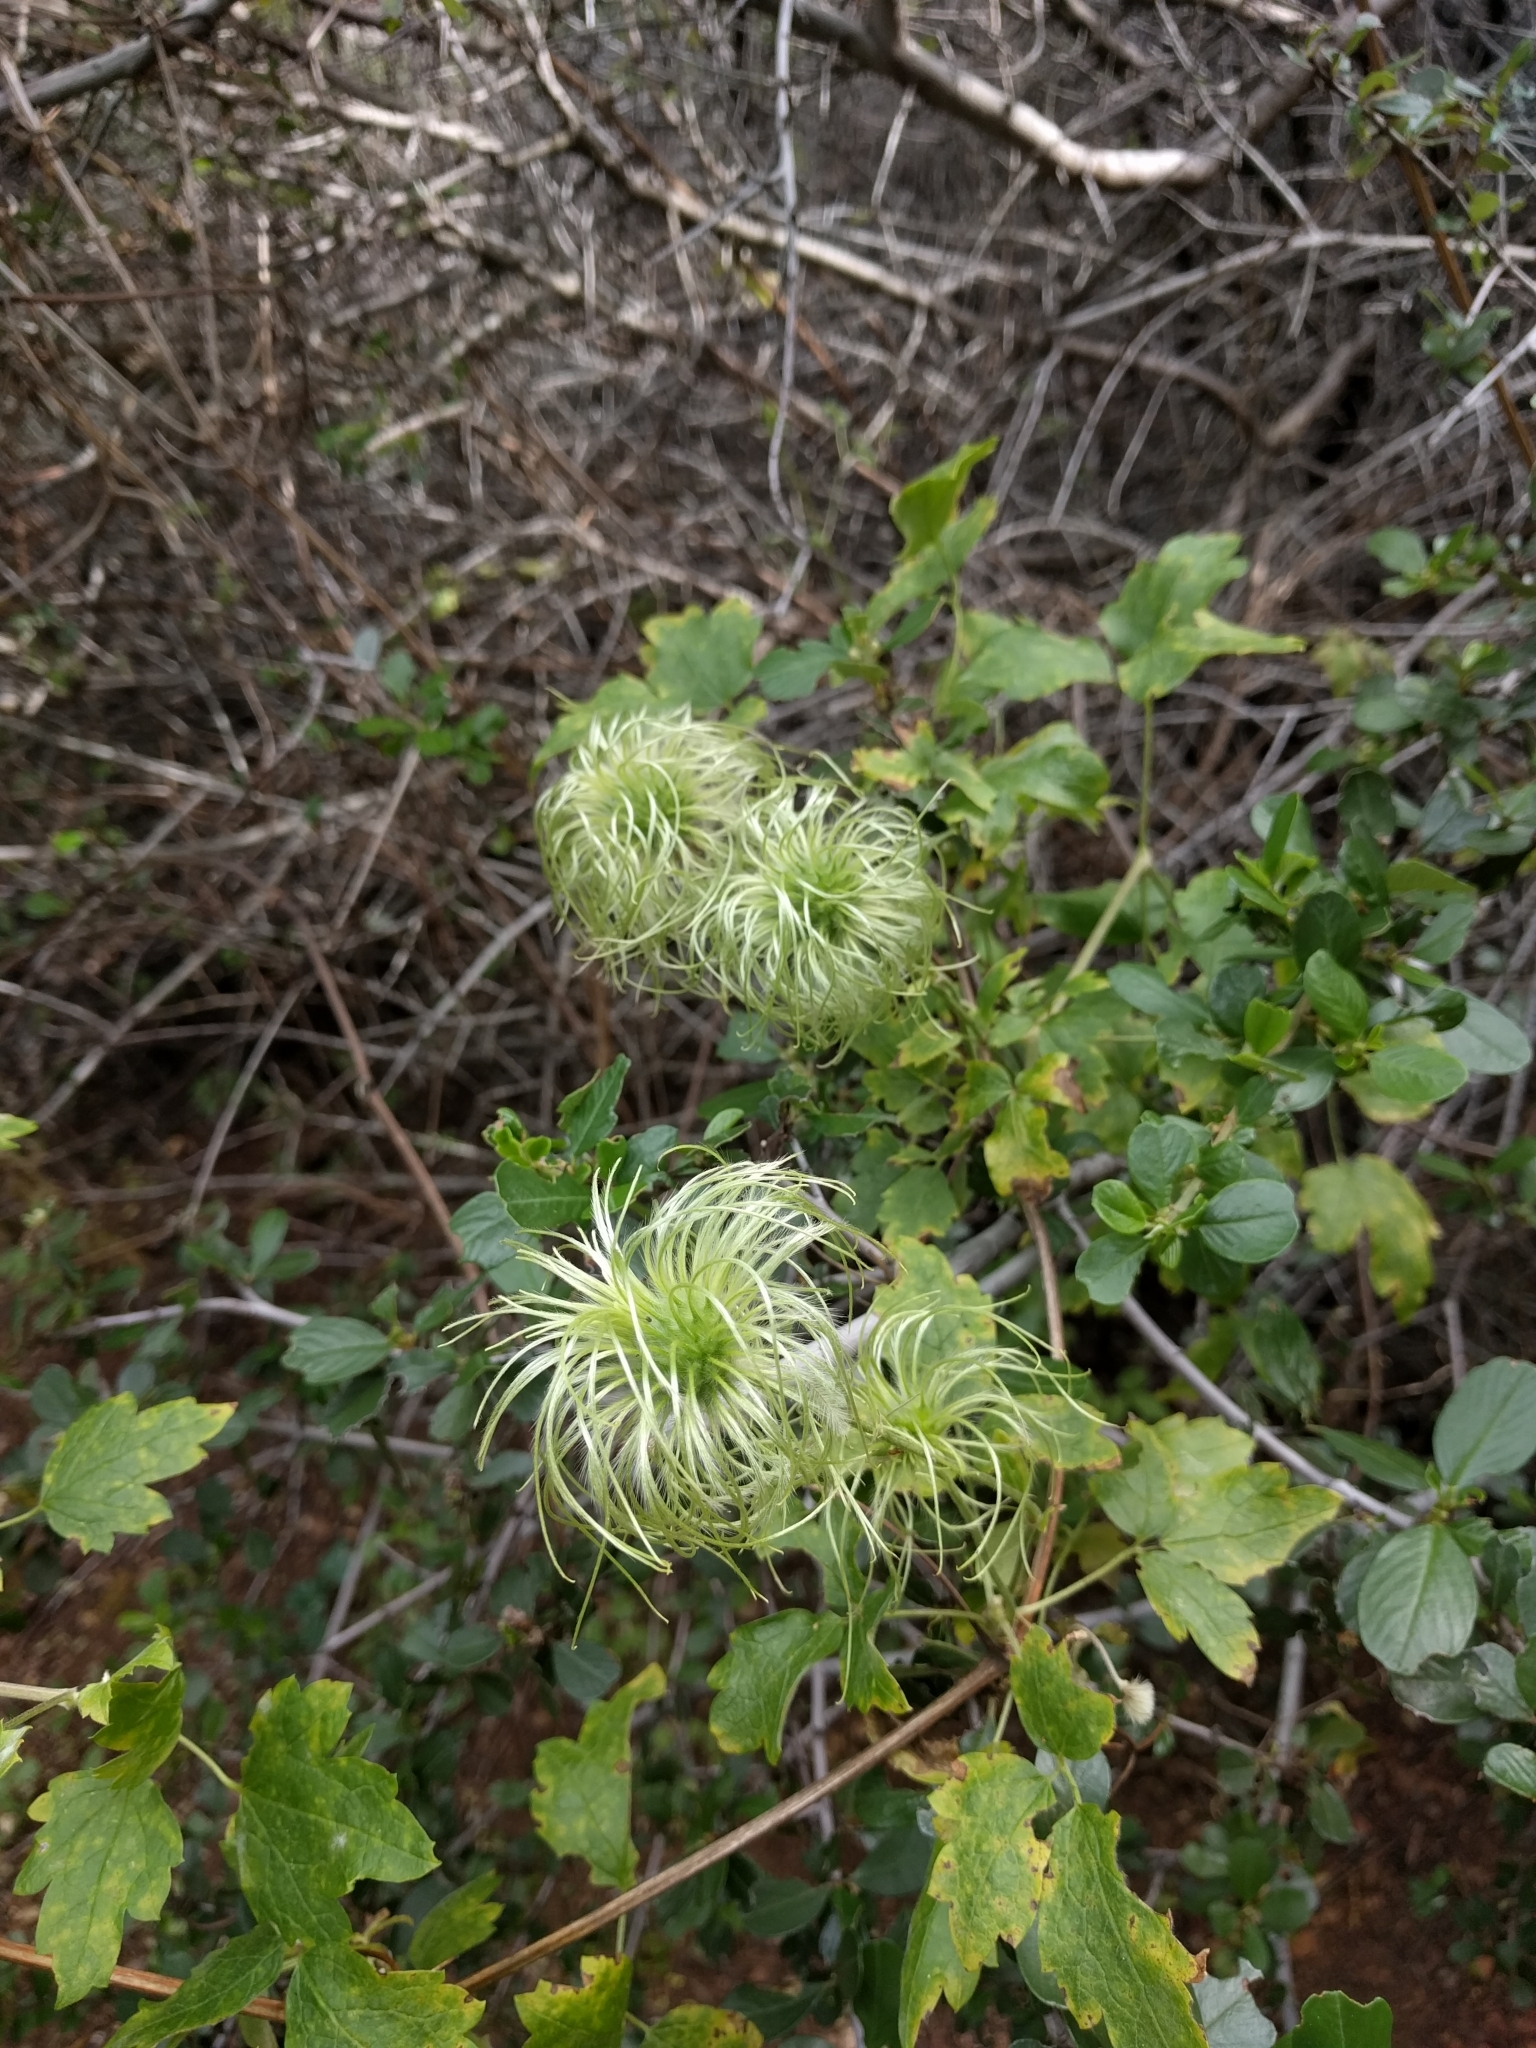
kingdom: Plantae
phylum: Tracheophyta
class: Magnoliopsida
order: Ranunculales
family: Ranunculaceae
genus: Clematis
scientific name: Clematis lasiantha
